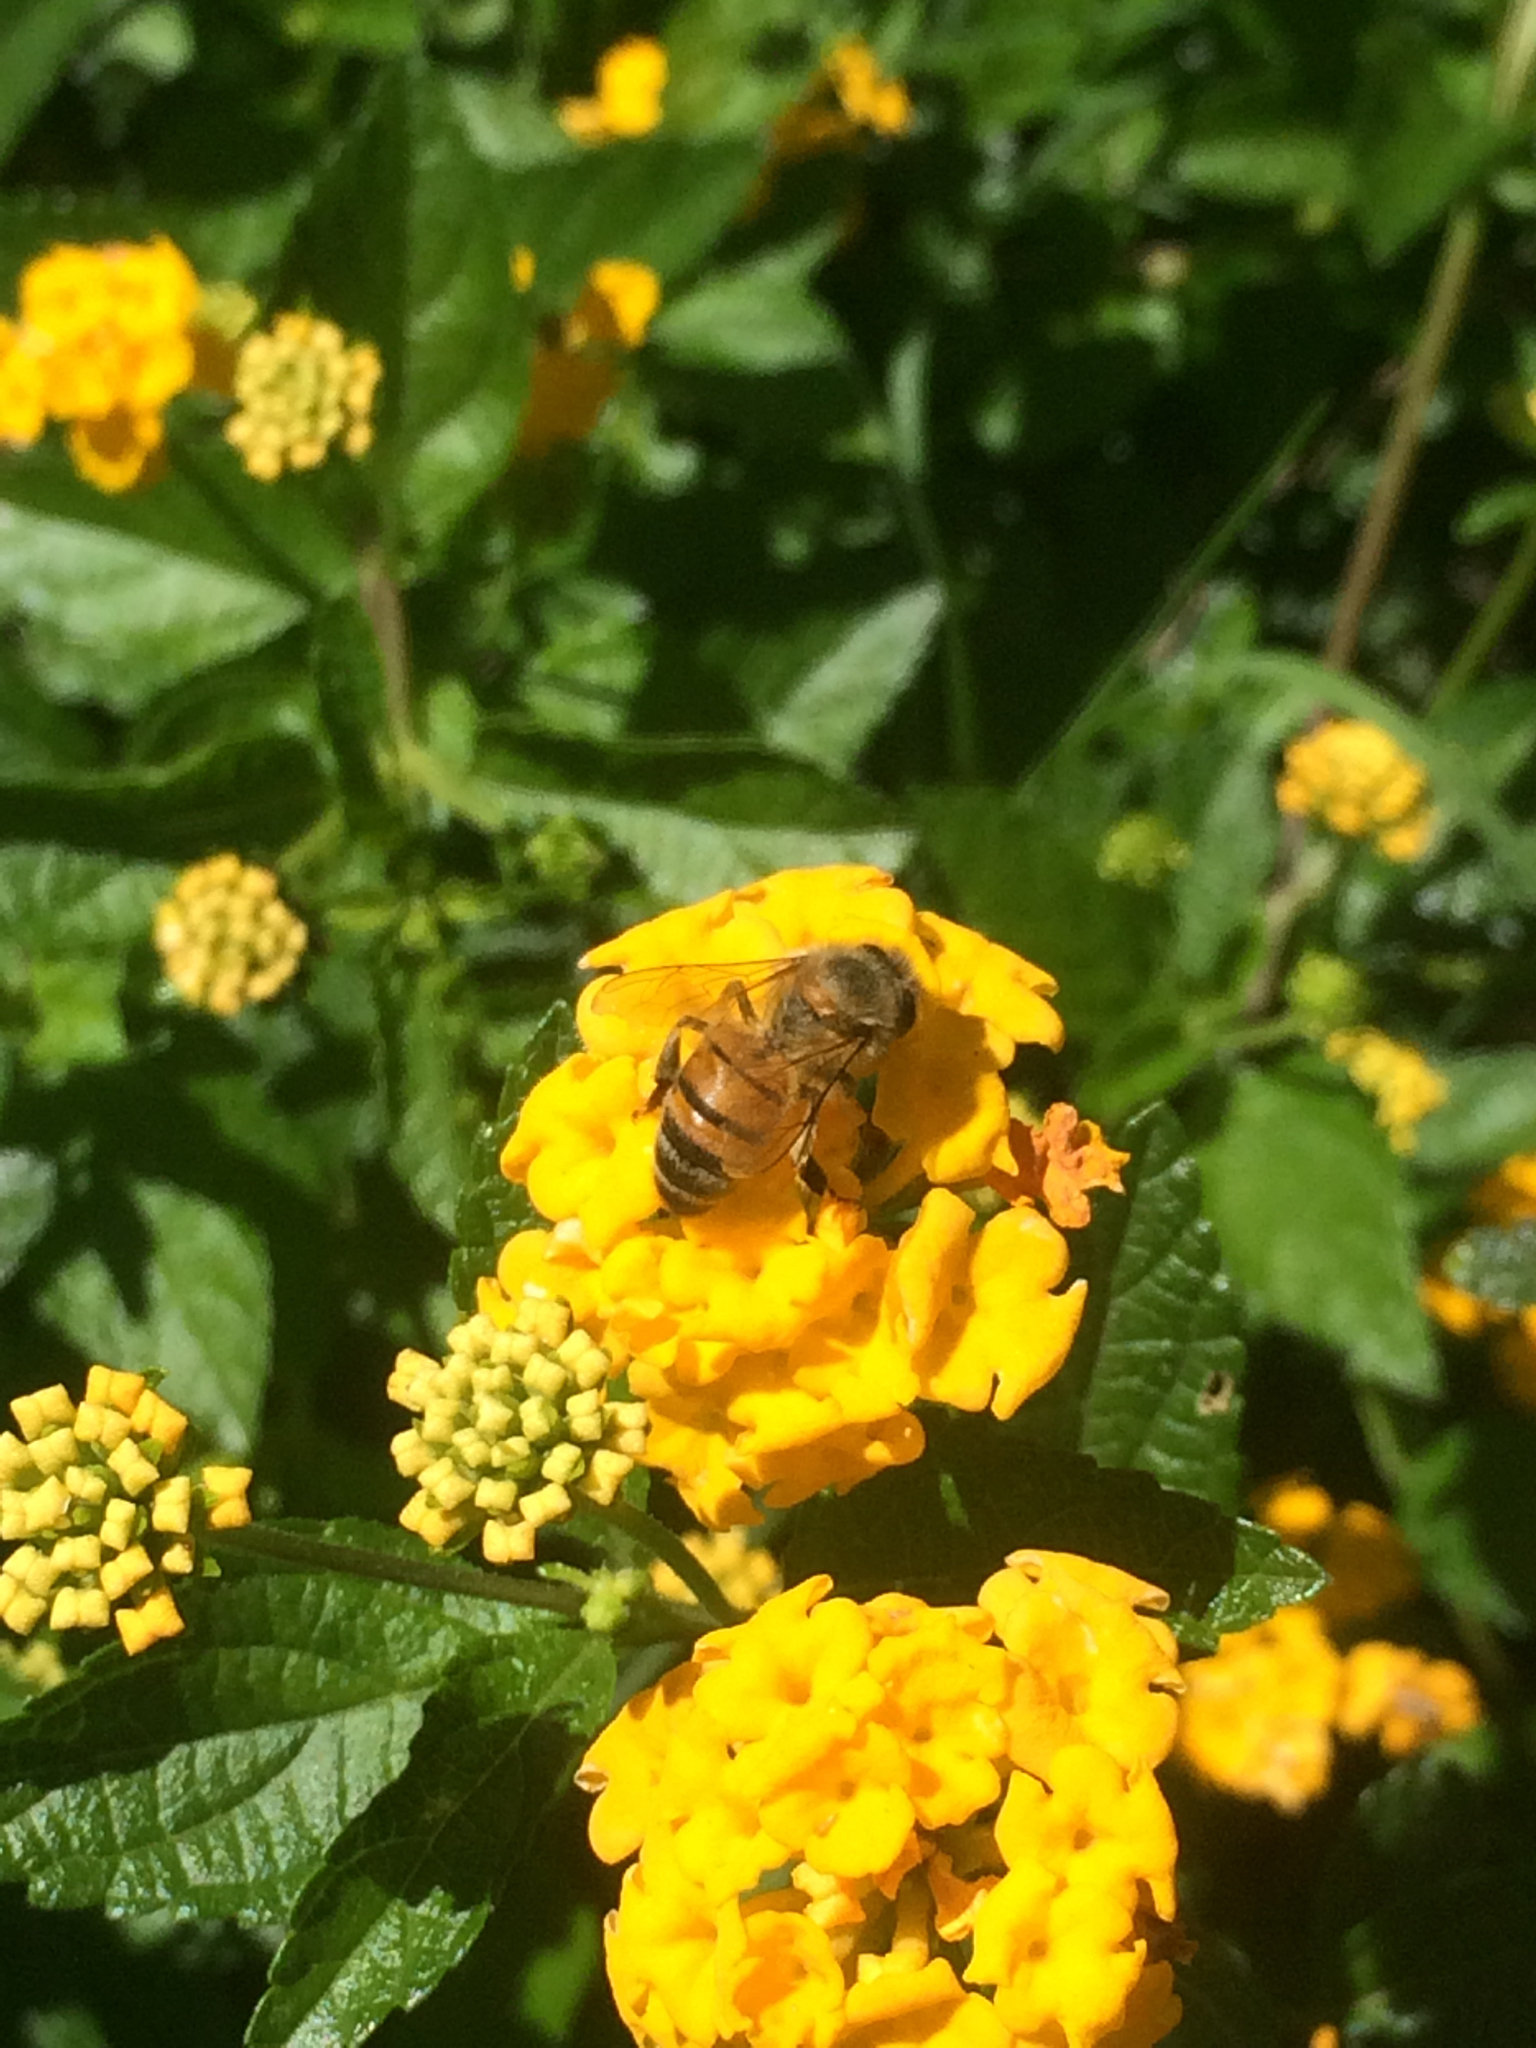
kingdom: Animalia
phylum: Arthropoda
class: Insecta
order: Hymenoptera
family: Apidae
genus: Apis
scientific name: Apis mellifera
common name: Honey bee
